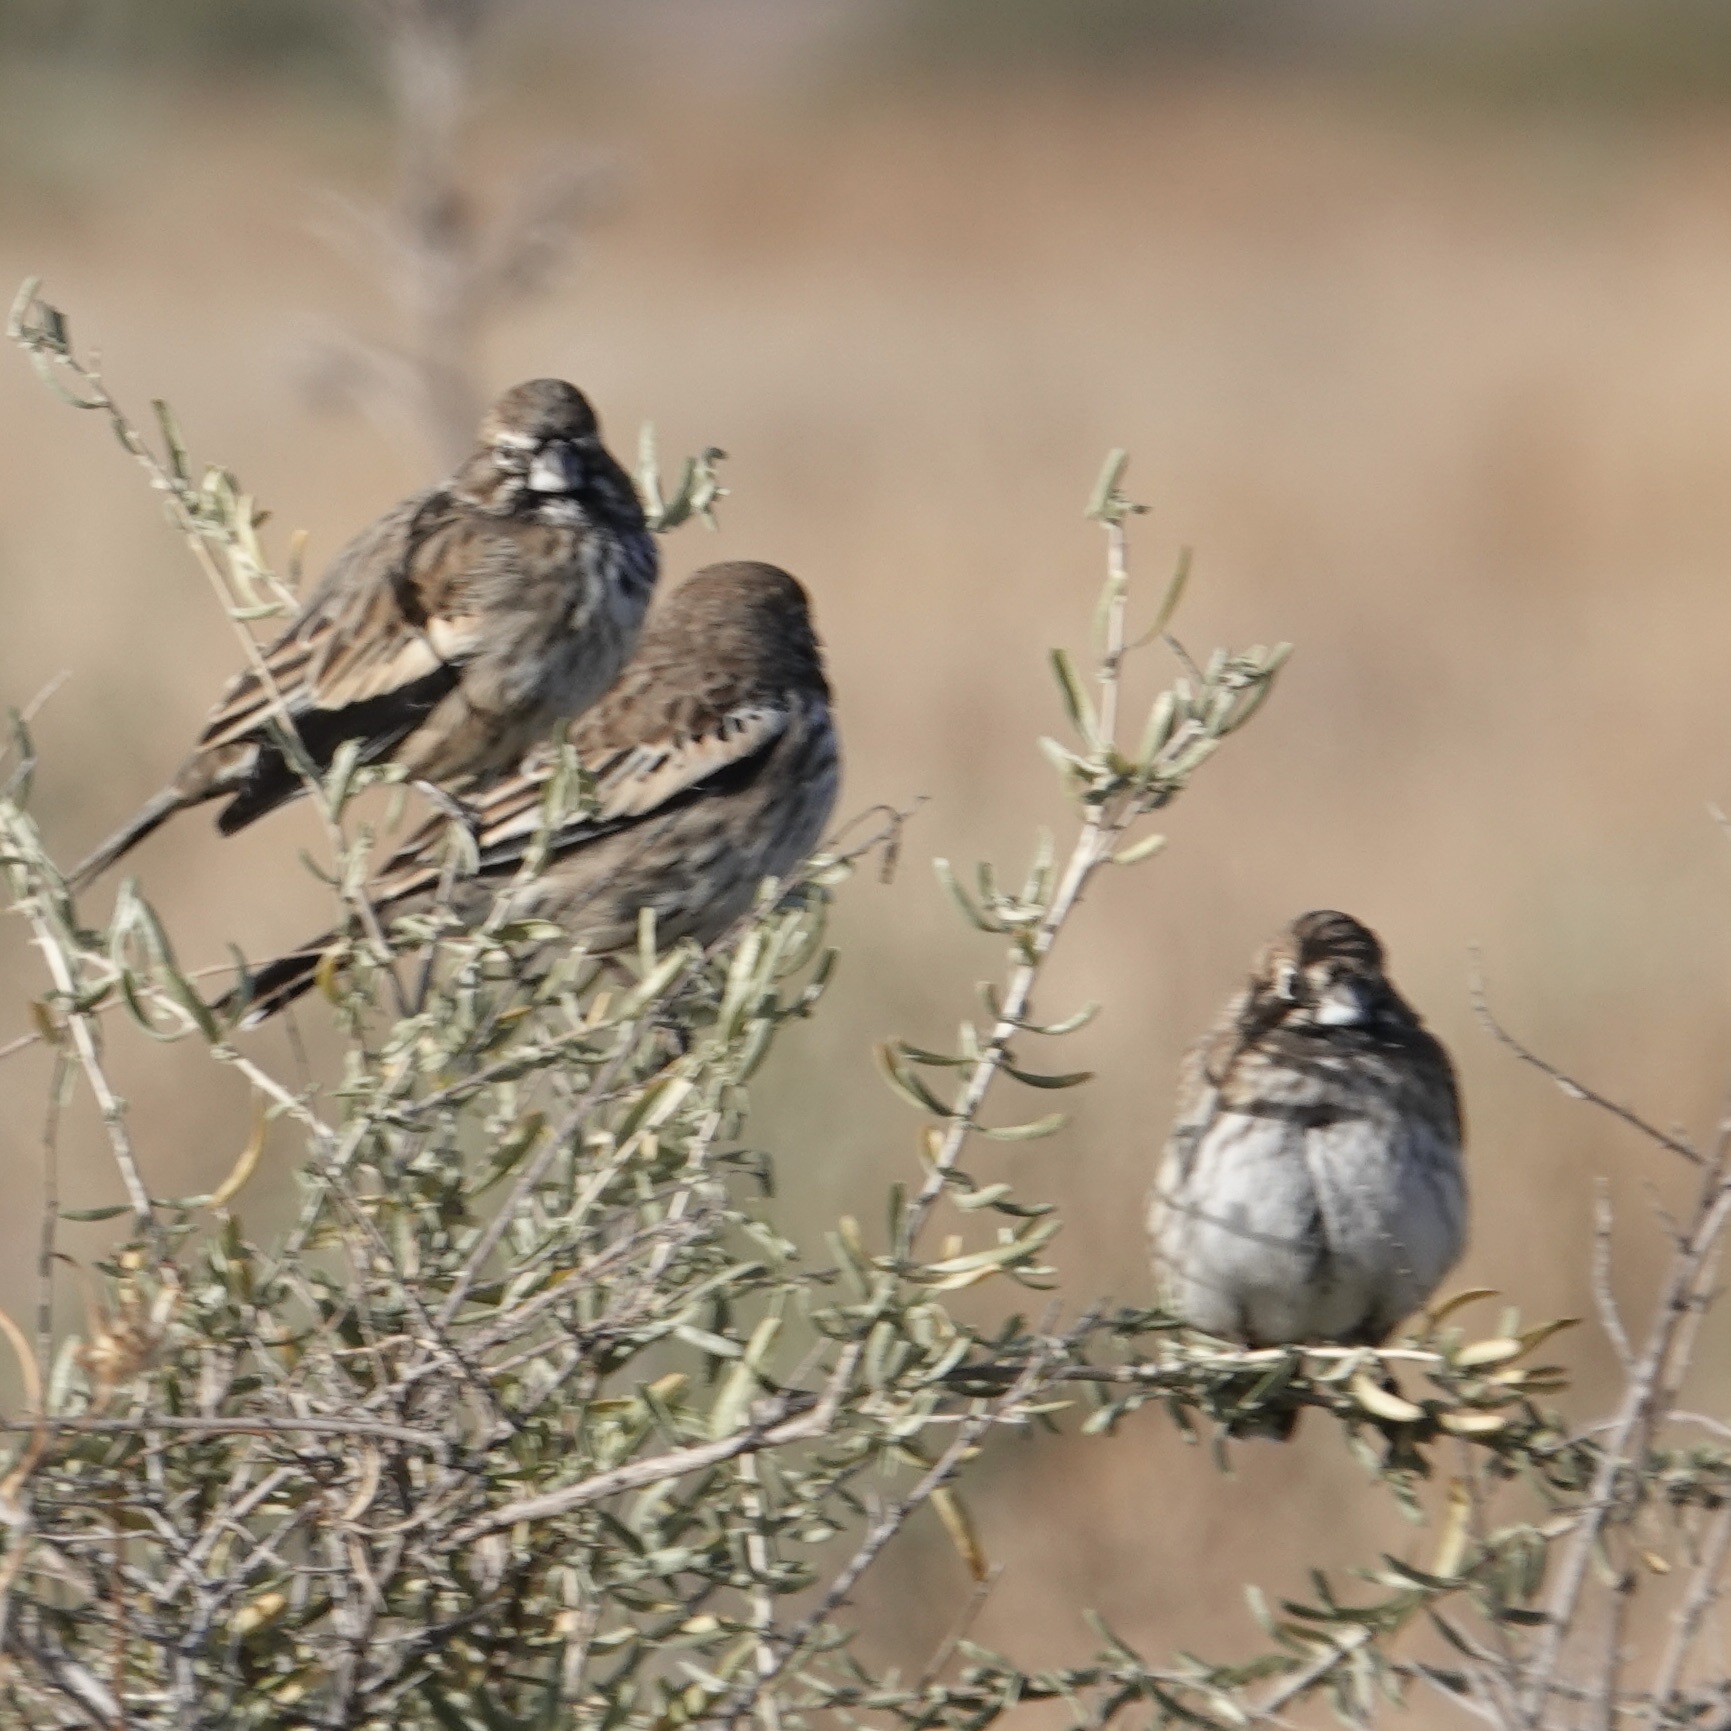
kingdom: Animalia
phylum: Chordata
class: Aves
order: Passeriformes
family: Passerellidae
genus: Calamospiza
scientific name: Calamospiza melanocorys
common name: Lark bunting
